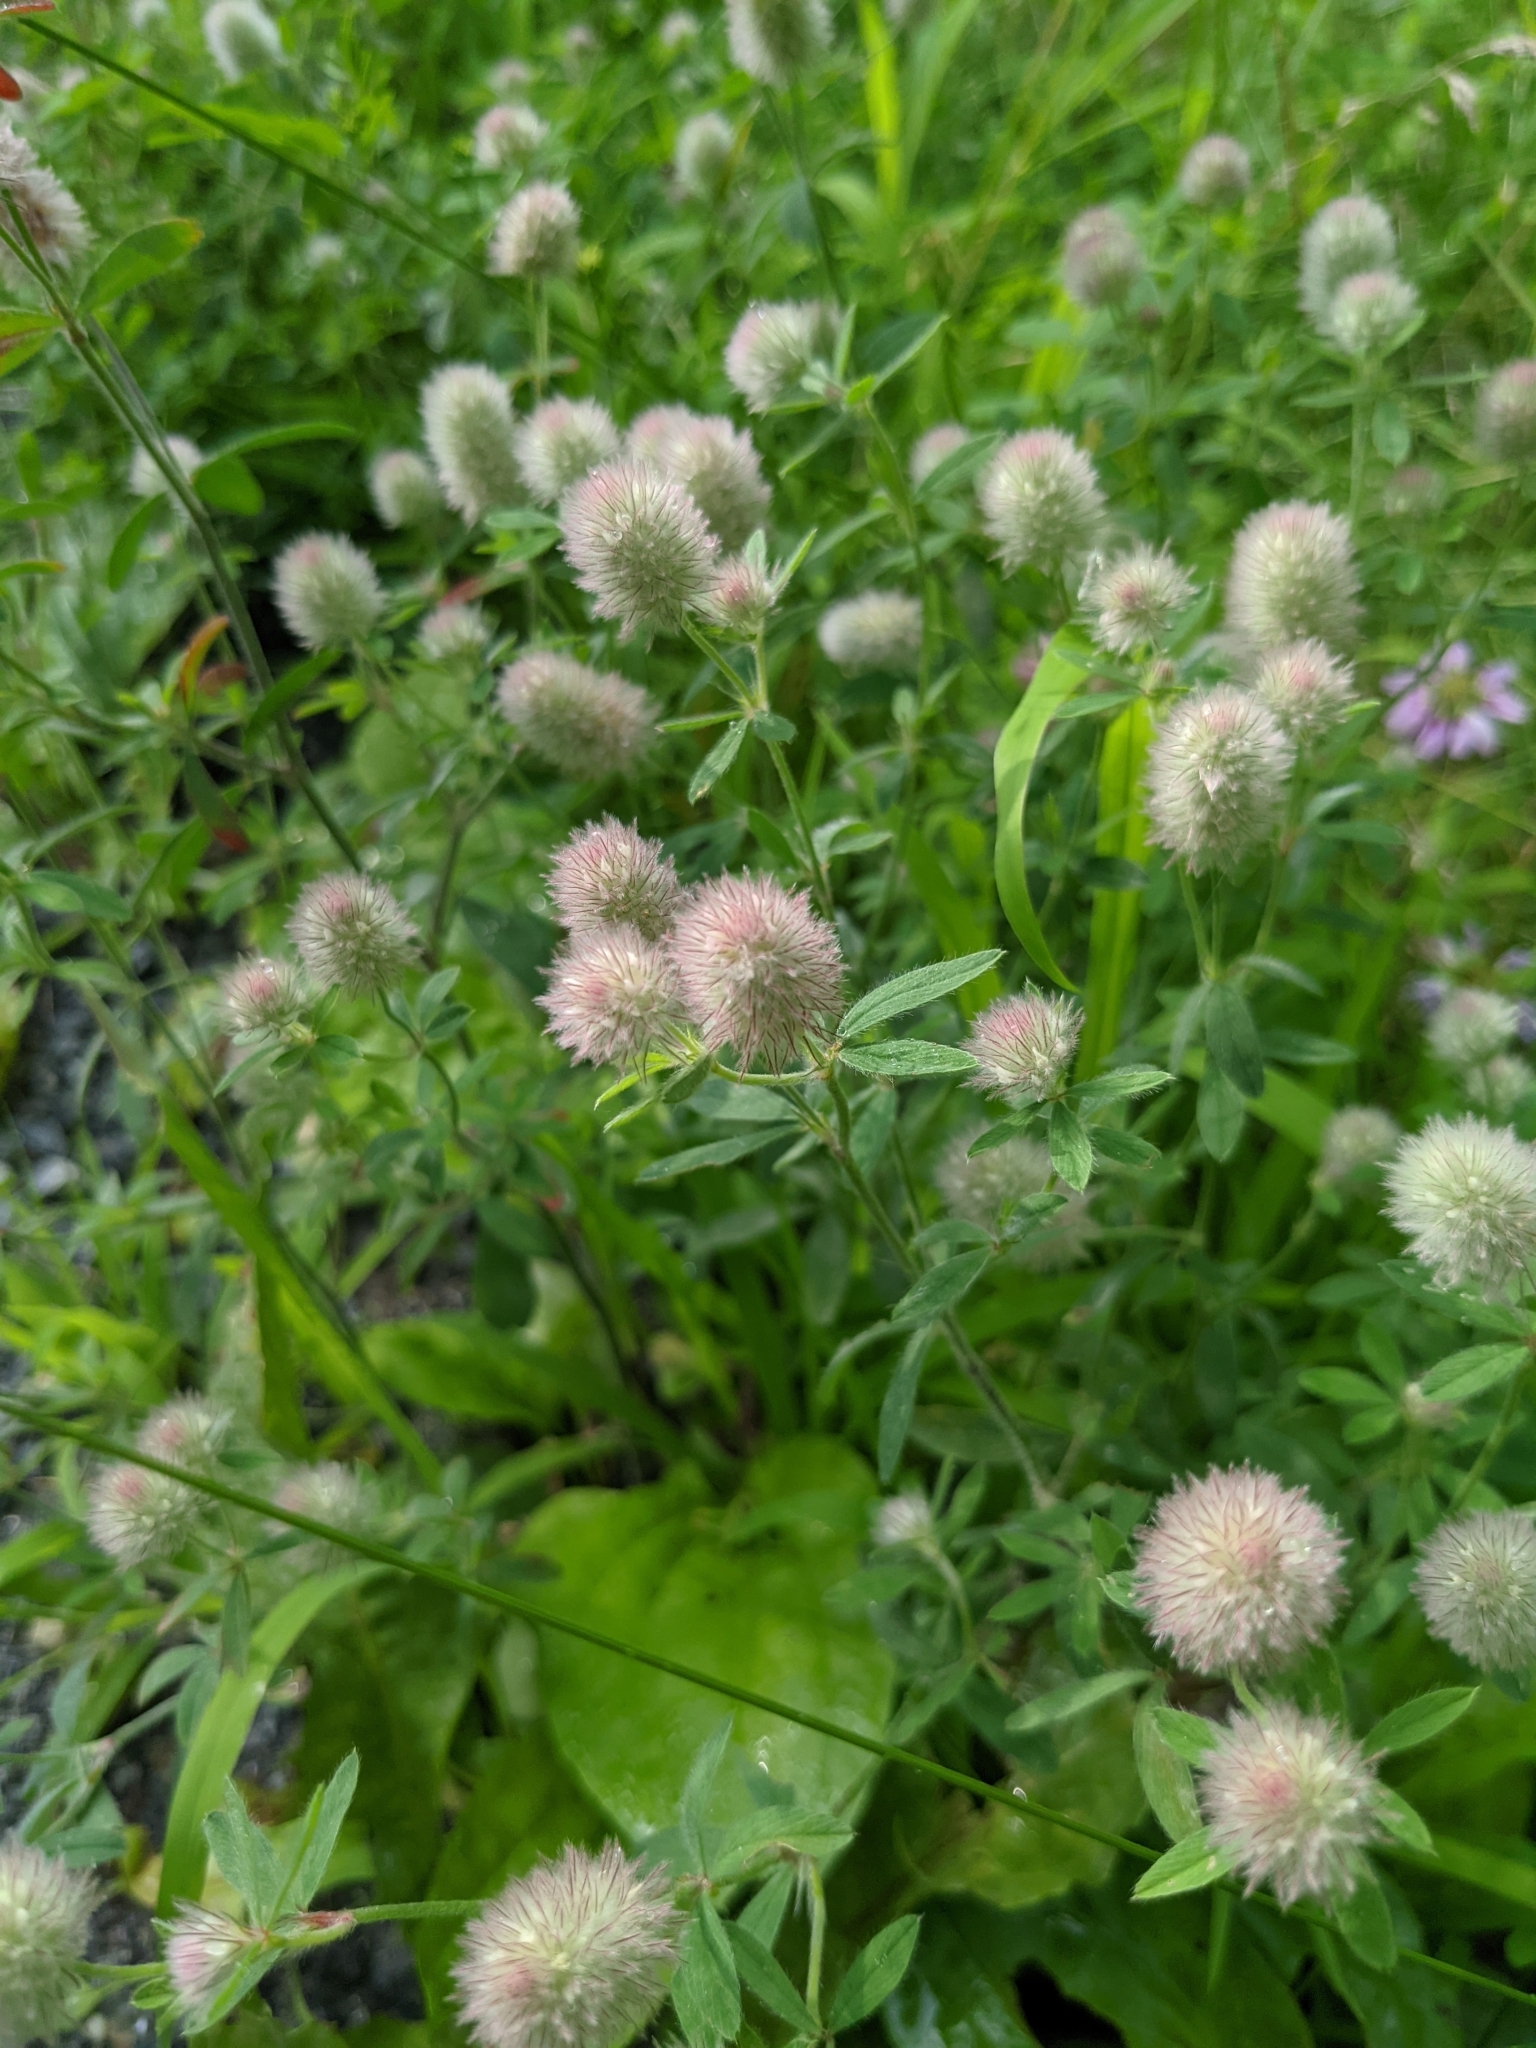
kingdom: Plantae
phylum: Tracheophyta
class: Magnoliopsida
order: Fabales
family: Fabaceae
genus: Trifolium
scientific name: Trifolium arvense
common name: Hare's-foot clover
